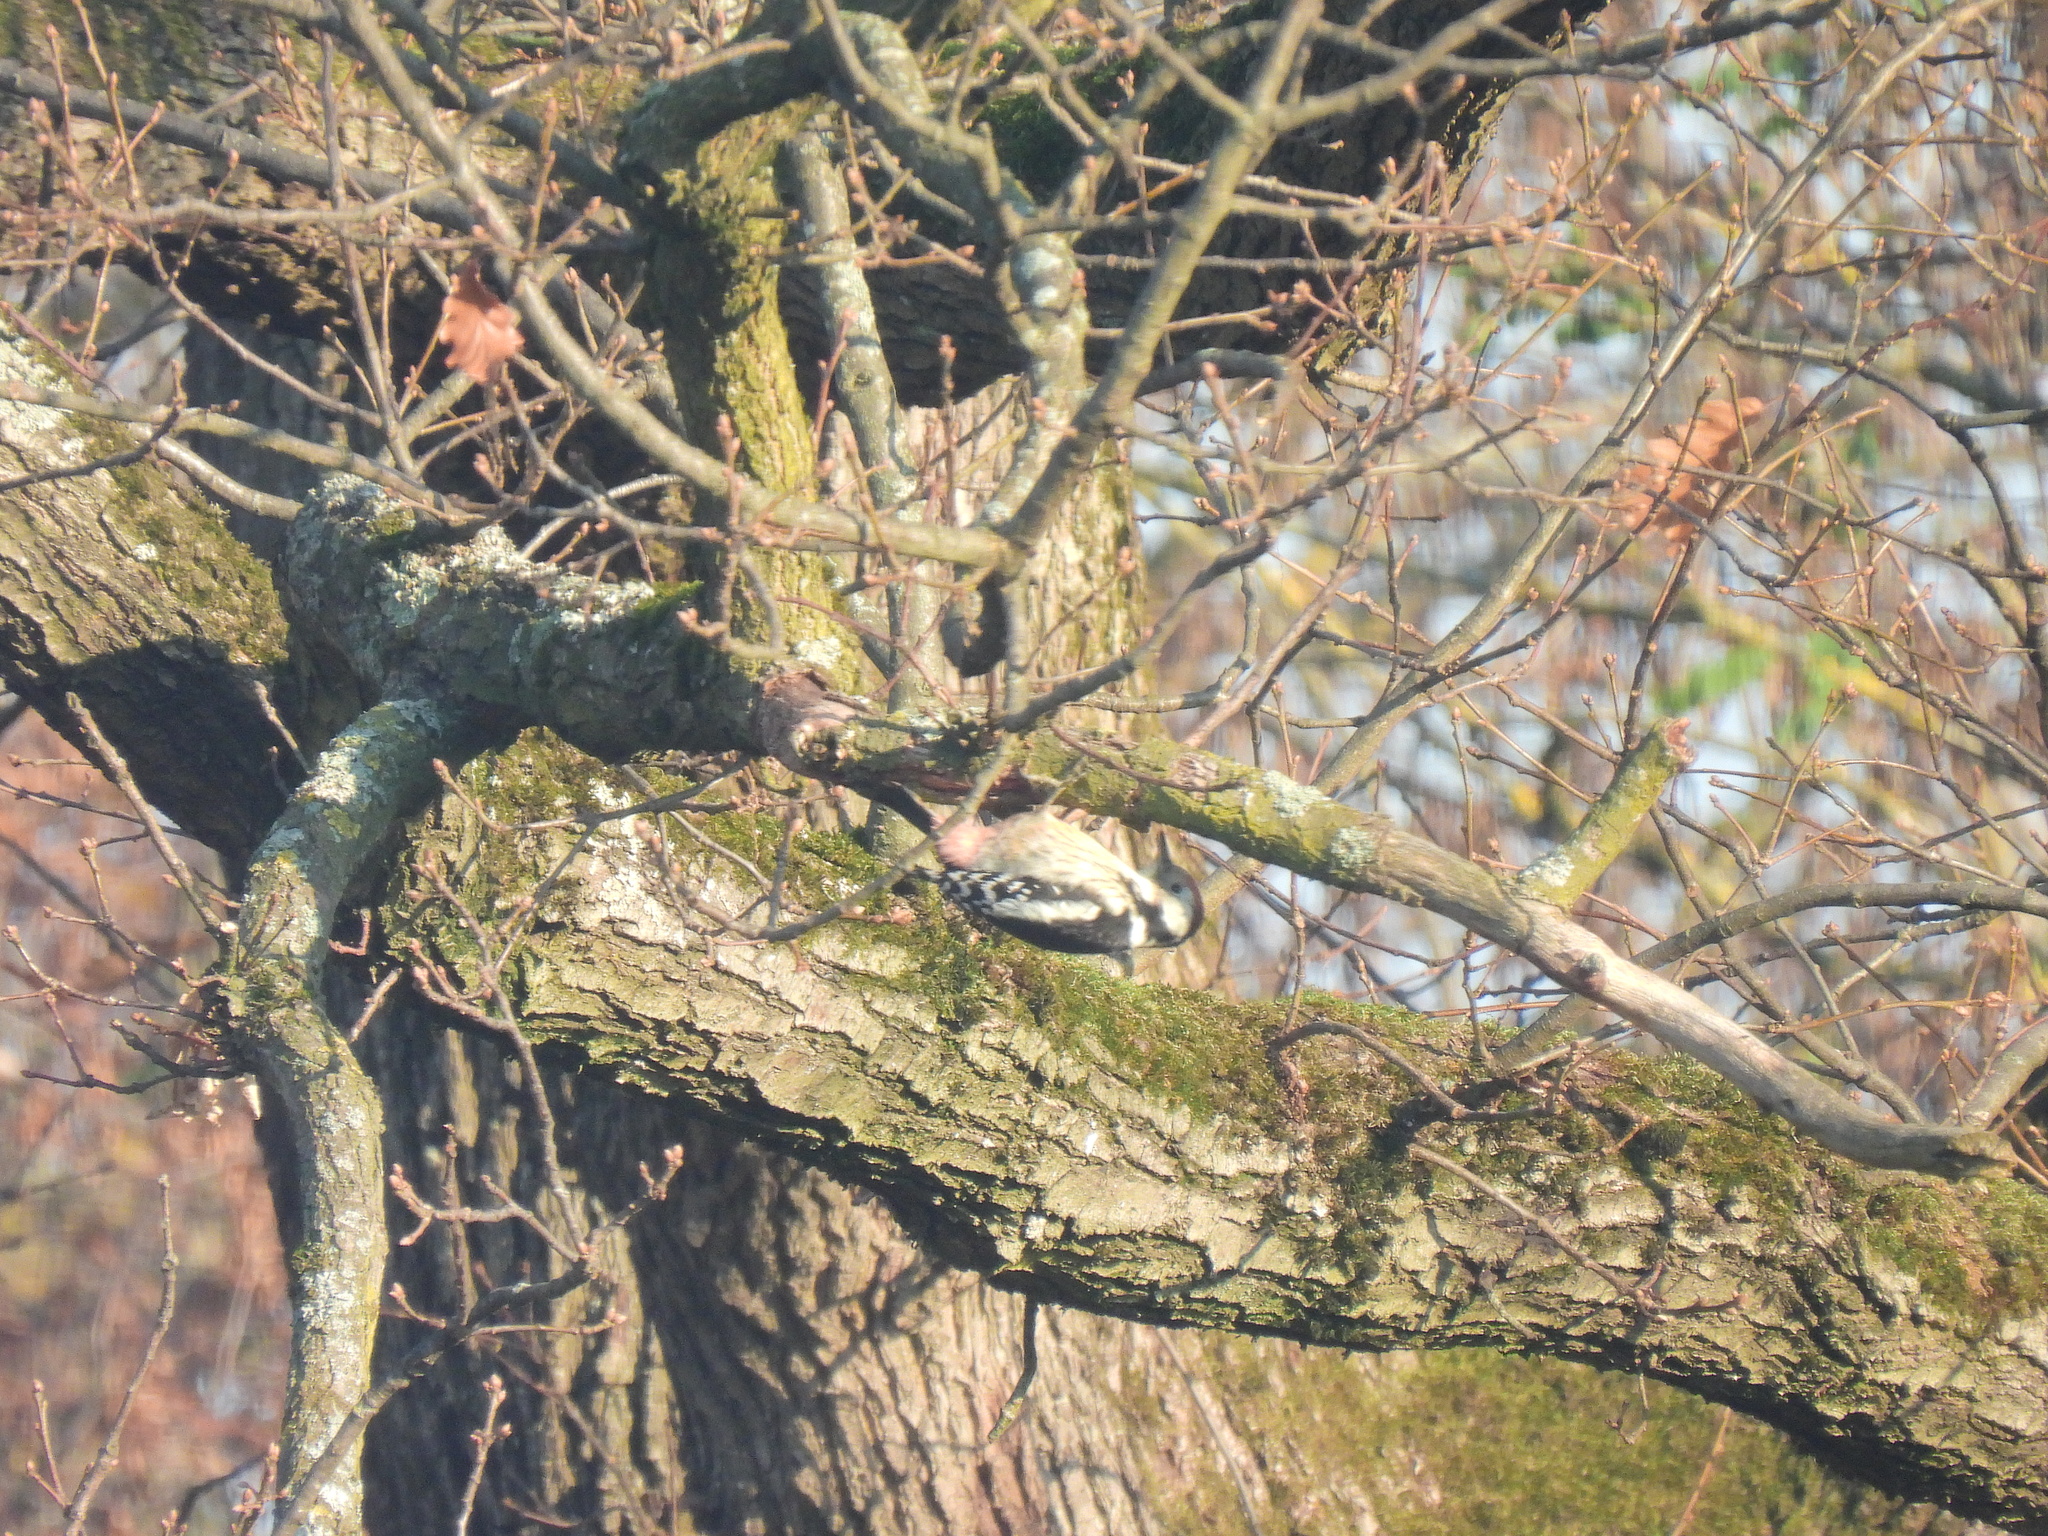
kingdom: Animalia
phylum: Chordata
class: Aves
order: Piciformes
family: Picidae
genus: Dendrocoptes
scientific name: Dendrocoptes medius
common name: Middle spotted woodpecker
